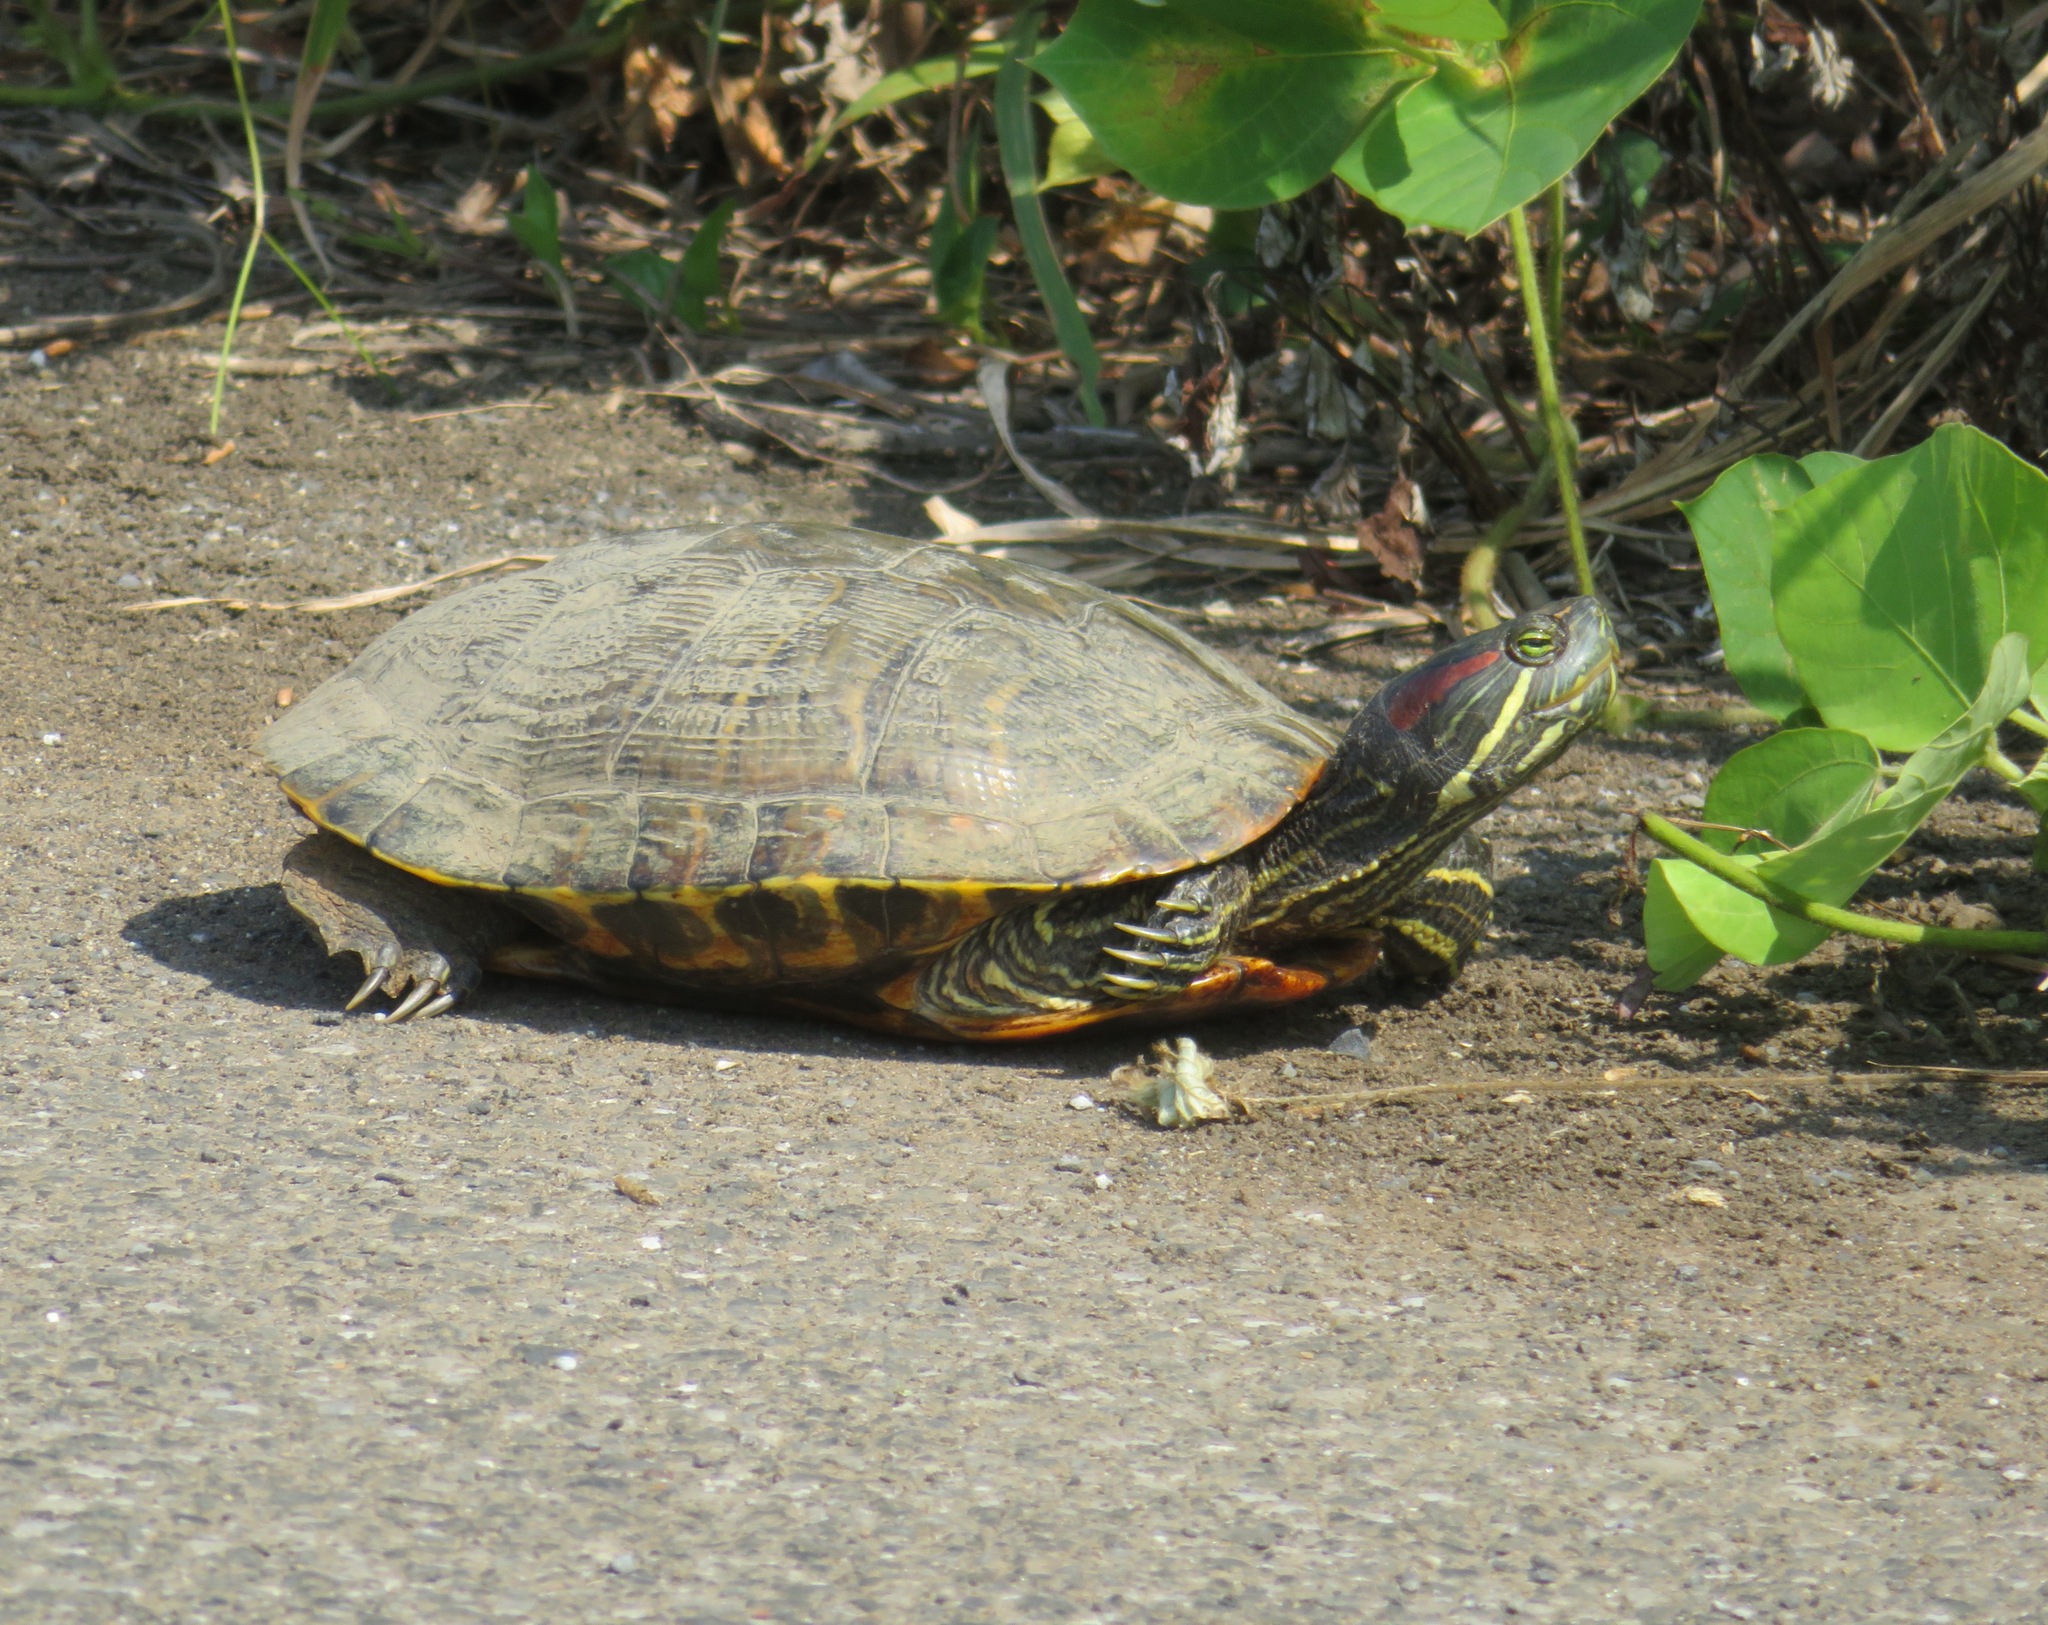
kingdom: Animalia
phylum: Chordata
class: Testudines
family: Emydidae
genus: Trachemys
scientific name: Trachemys scripta
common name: Slider
